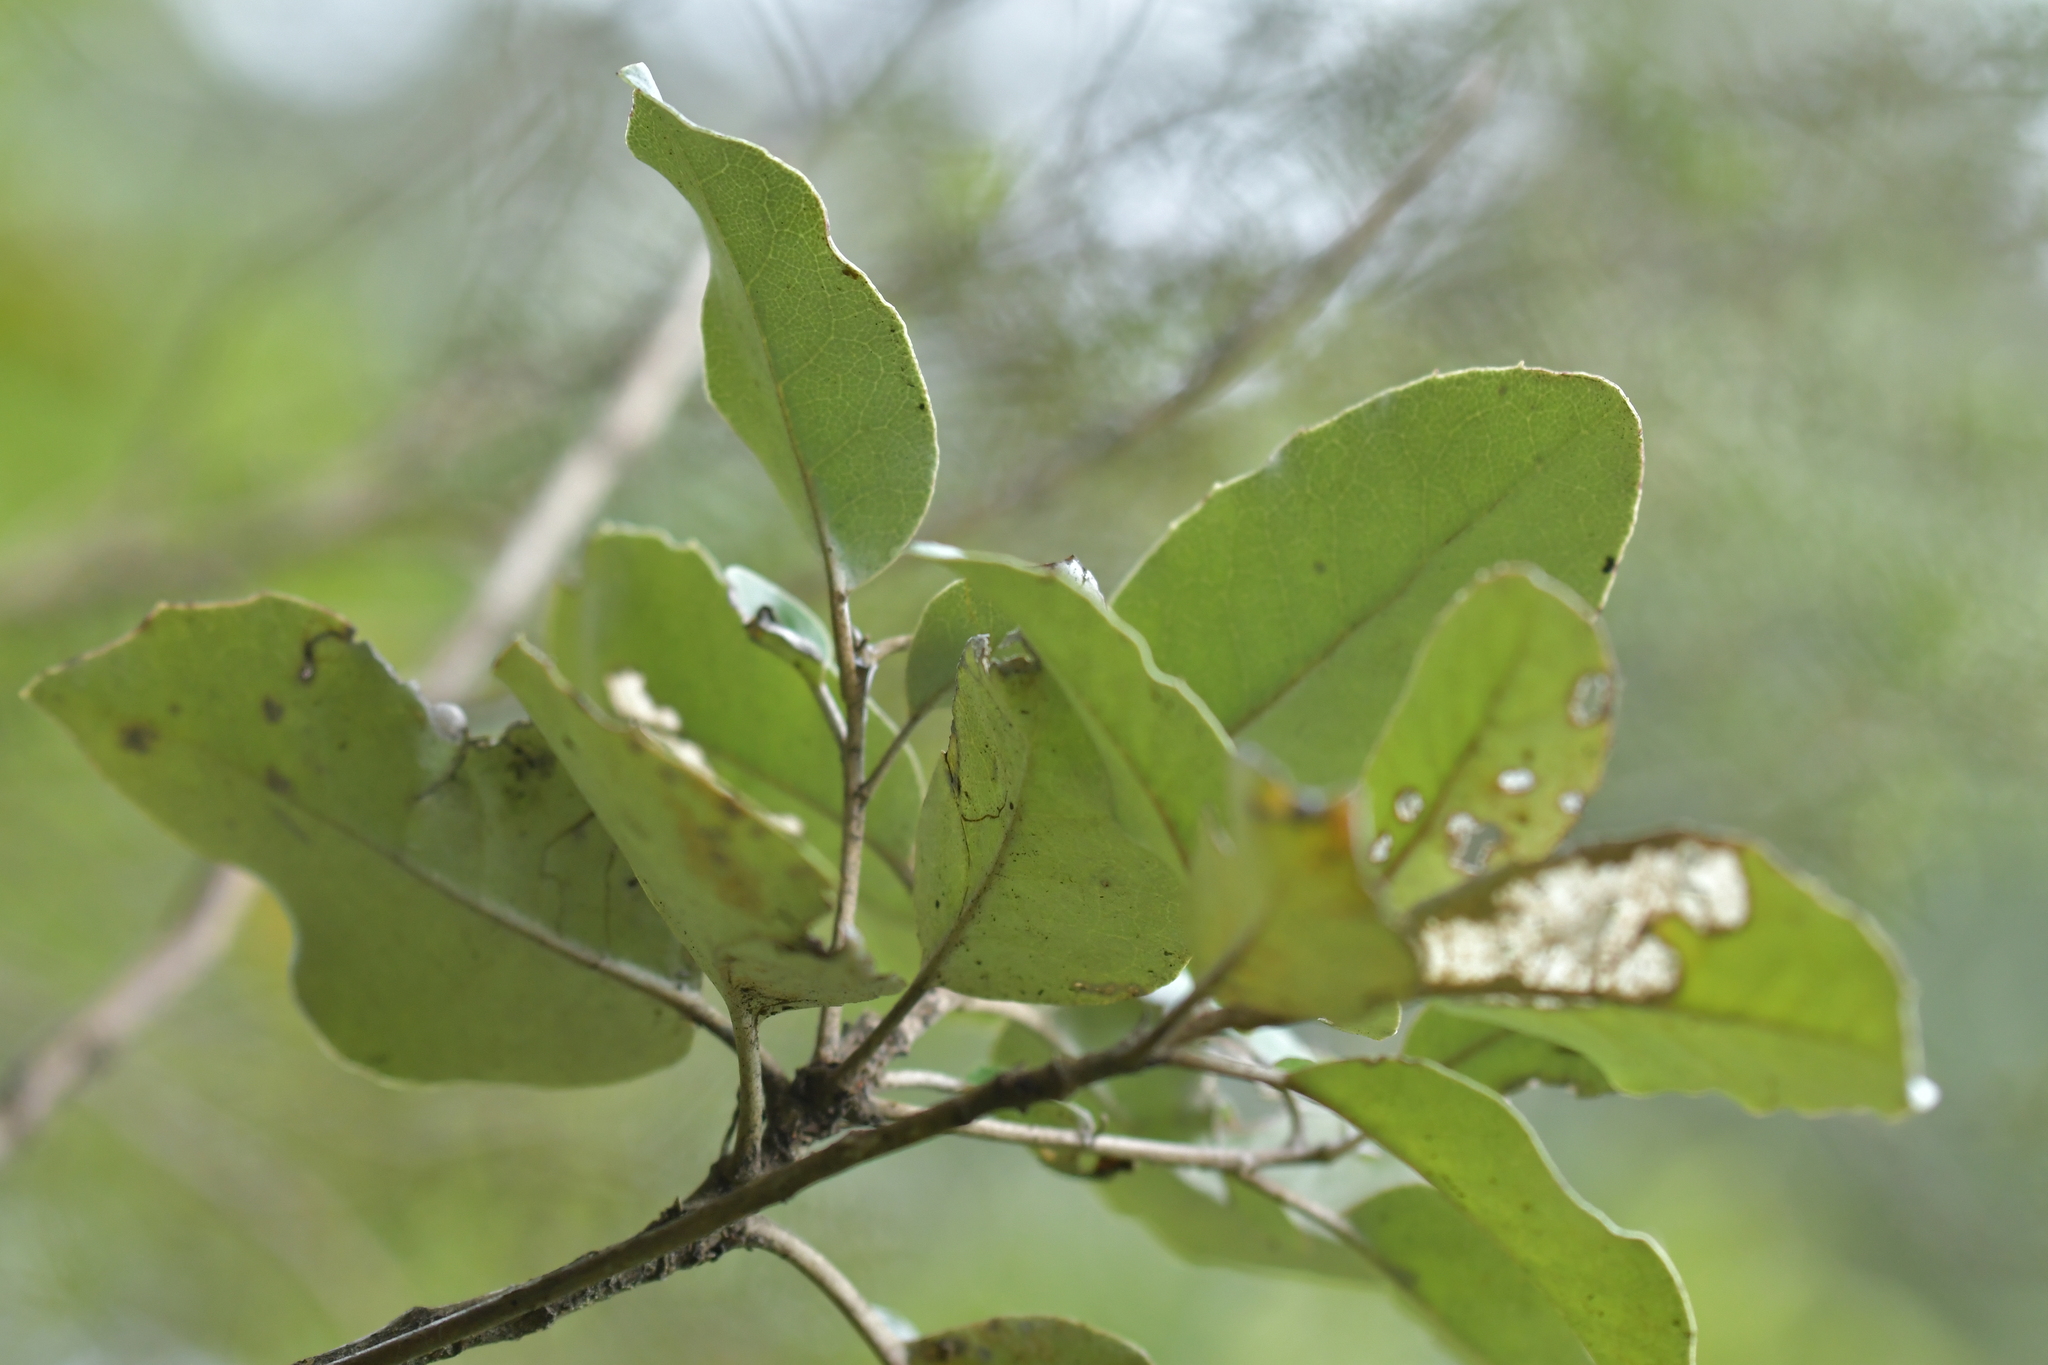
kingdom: Plantae
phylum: Tracheophyta
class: Magnoliopsida
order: Asterales
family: Asteraceae
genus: Olearia
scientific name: Olearia furfuracea
